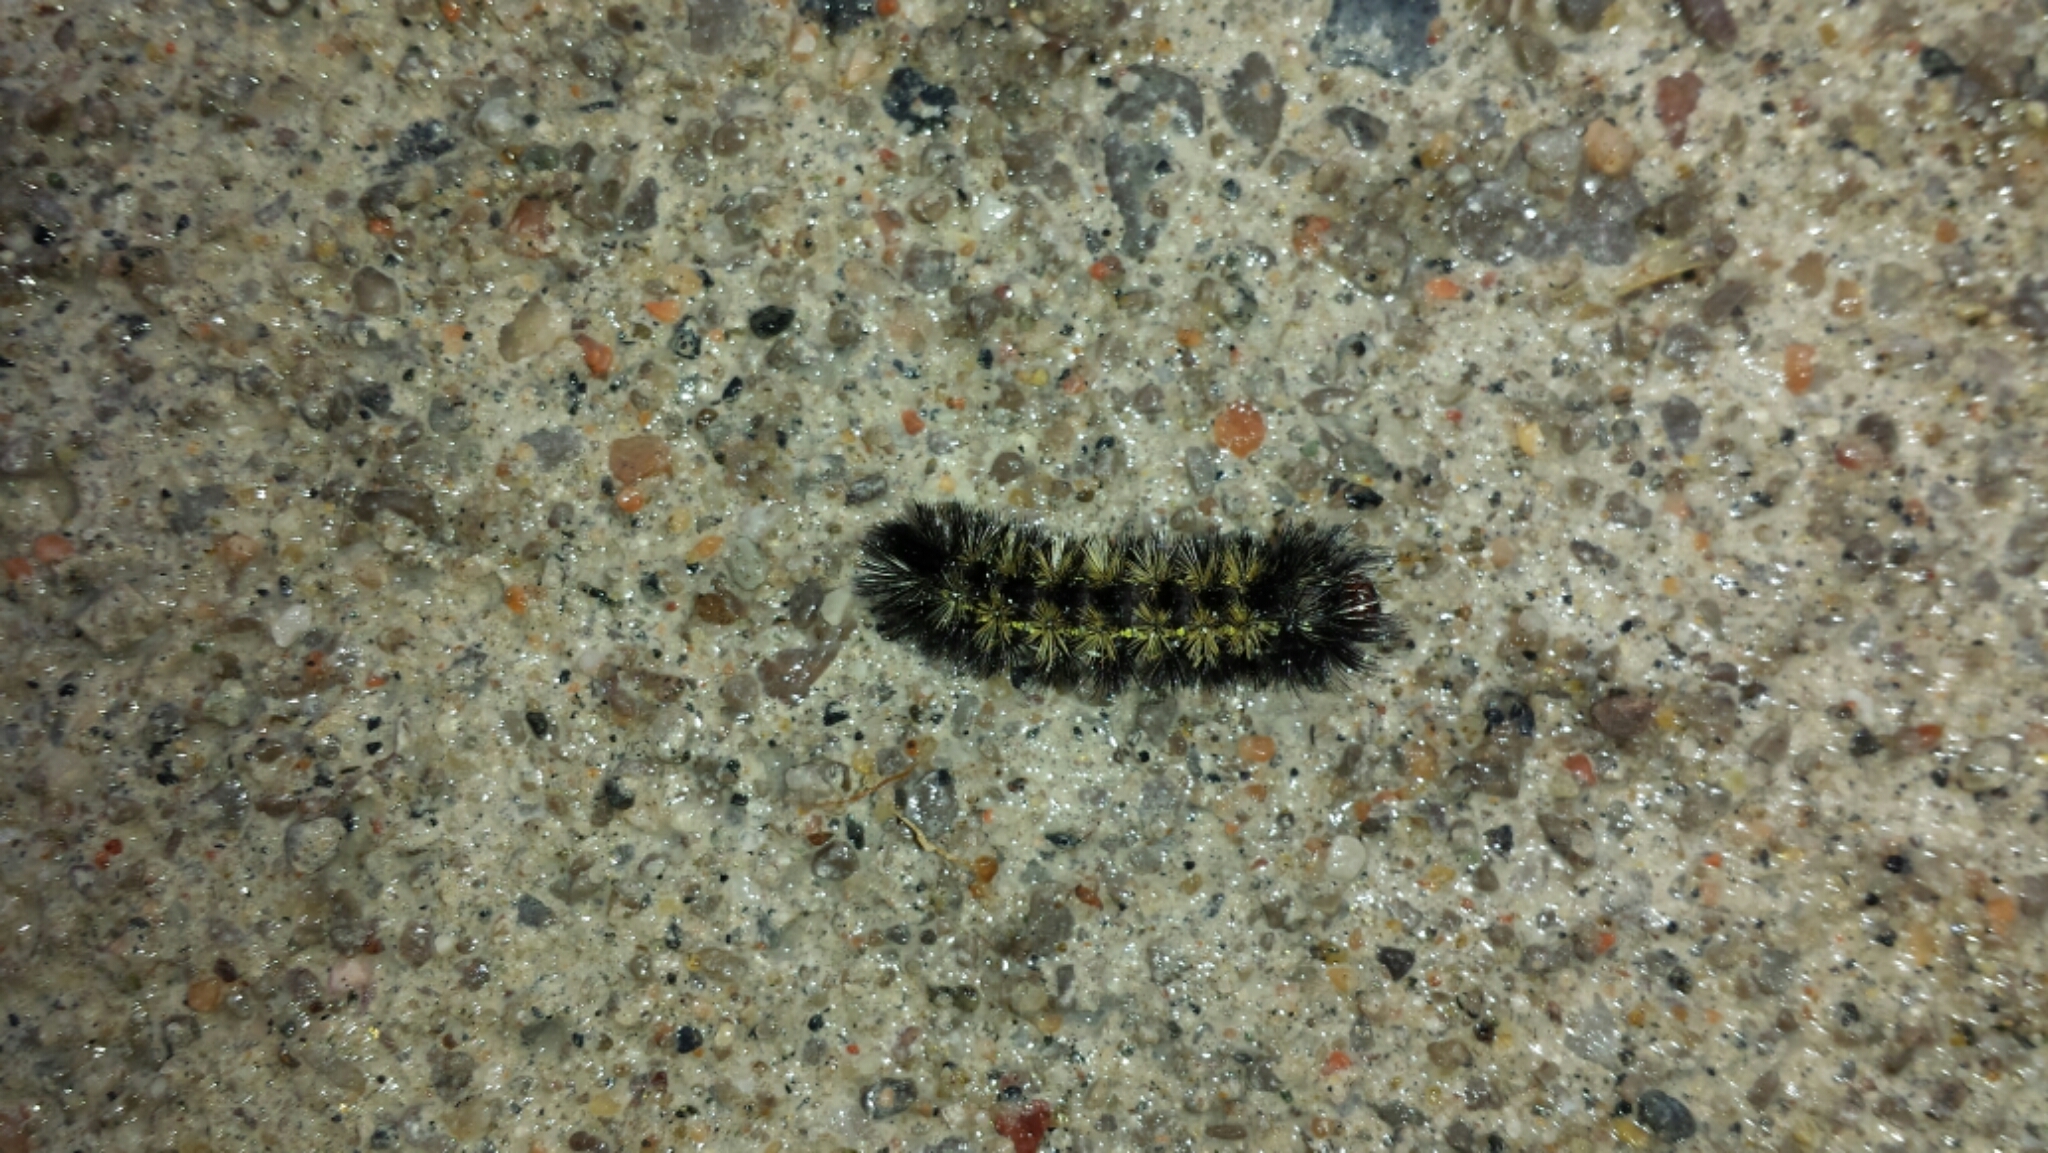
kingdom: Animalia
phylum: Arthropoda
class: Insecta
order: Lepidoptera
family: Erebidae
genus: Ctenucha
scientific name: Ctenucha virginica
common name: Virginia ctenucha moth
